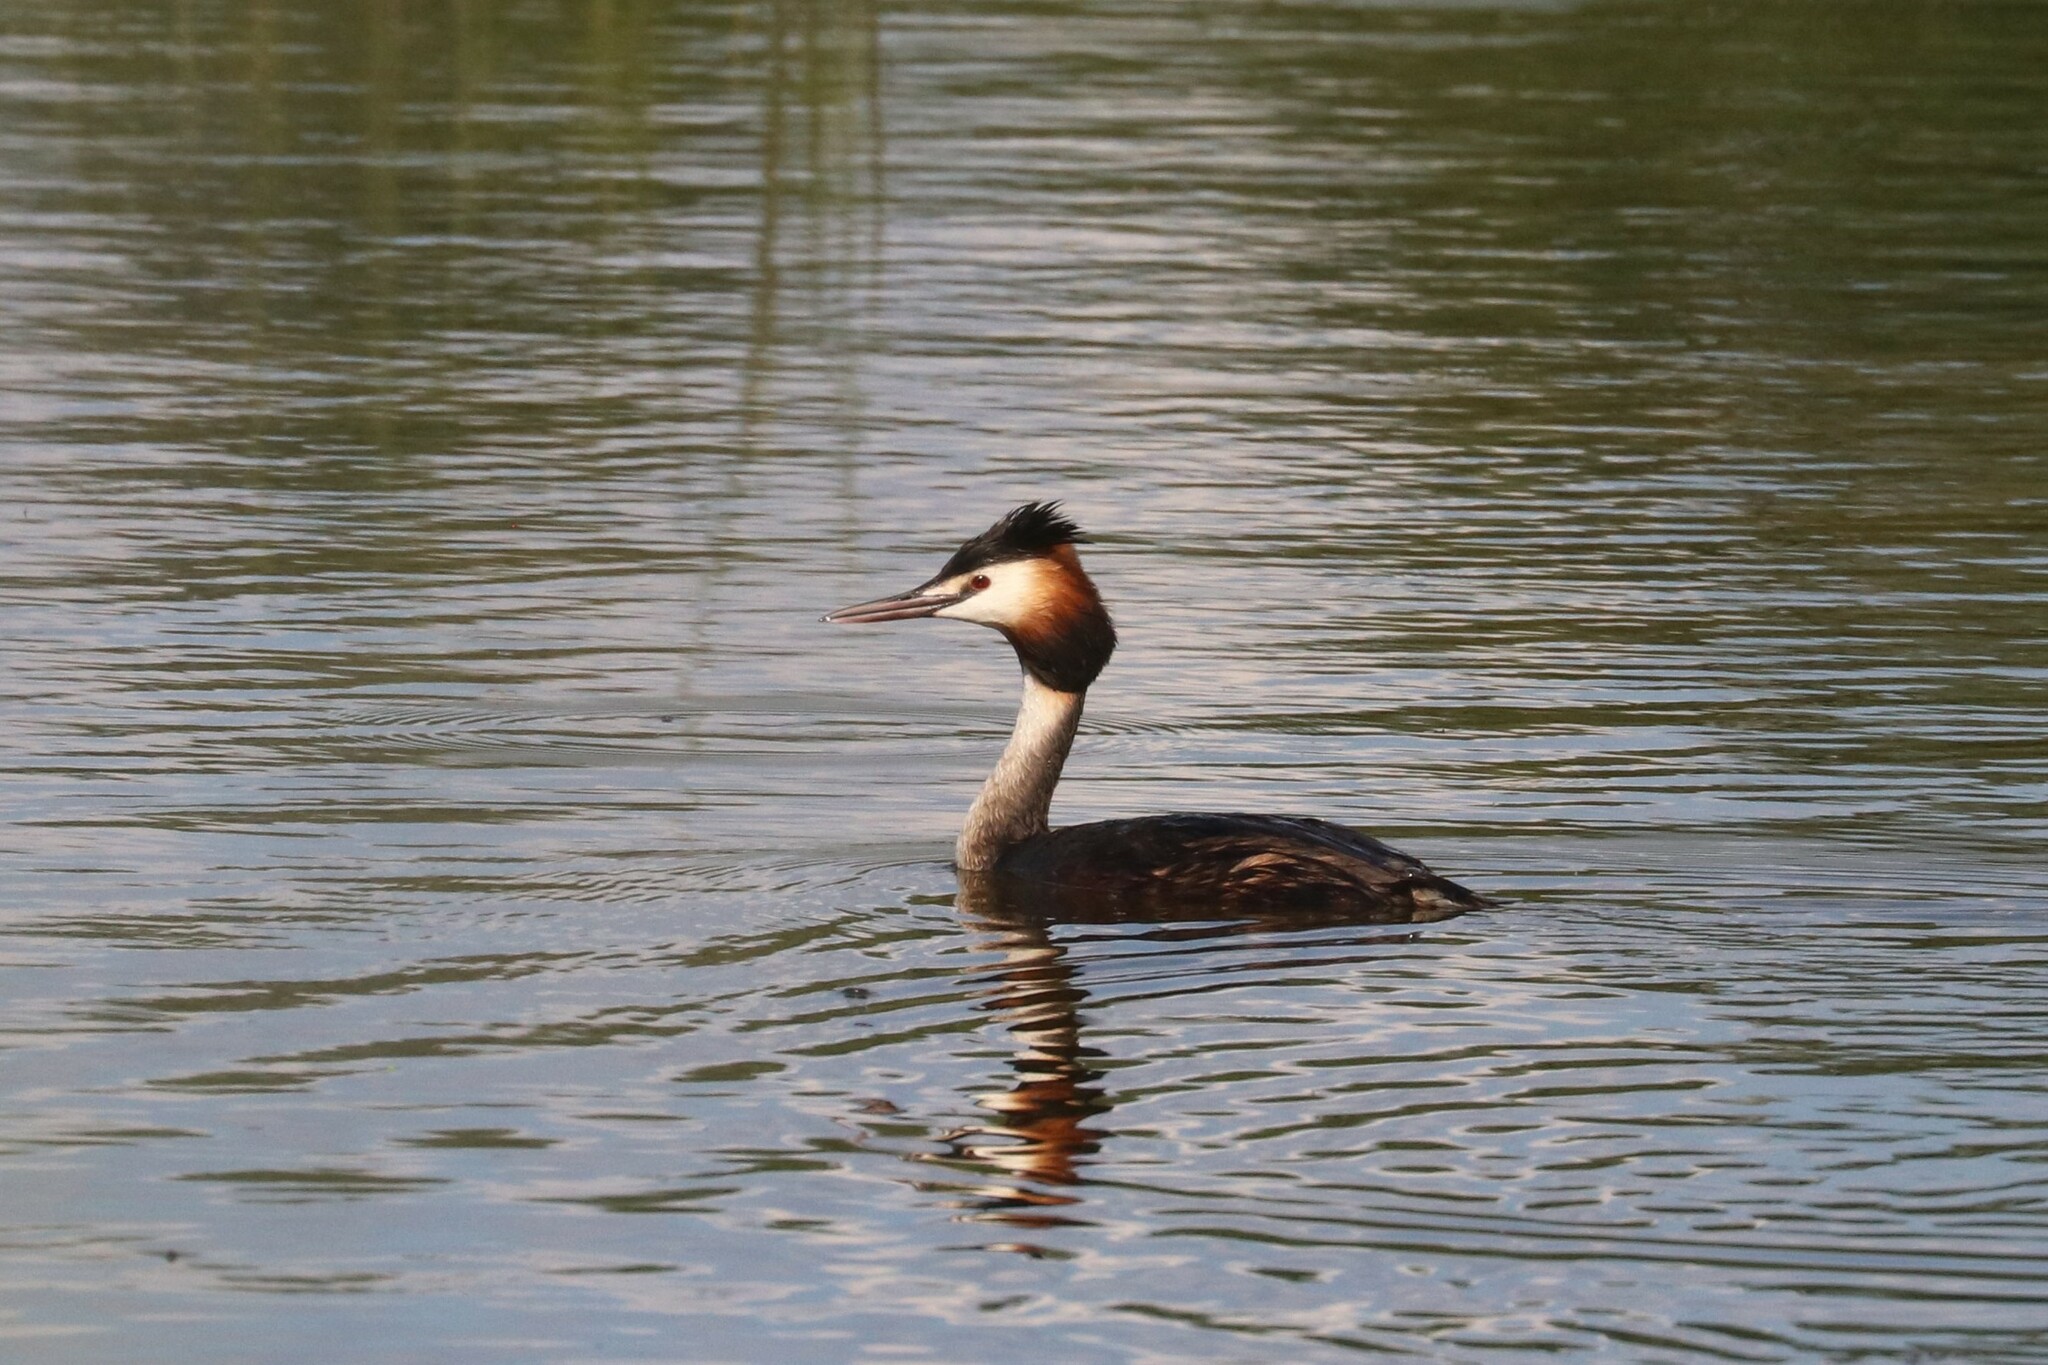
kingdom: Animalia
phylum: Chordata
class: Aves
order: Podicipediformes
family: Podicipedidae
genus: Podiceps
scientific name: Podiceps cristatus
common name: Great crested grebe
